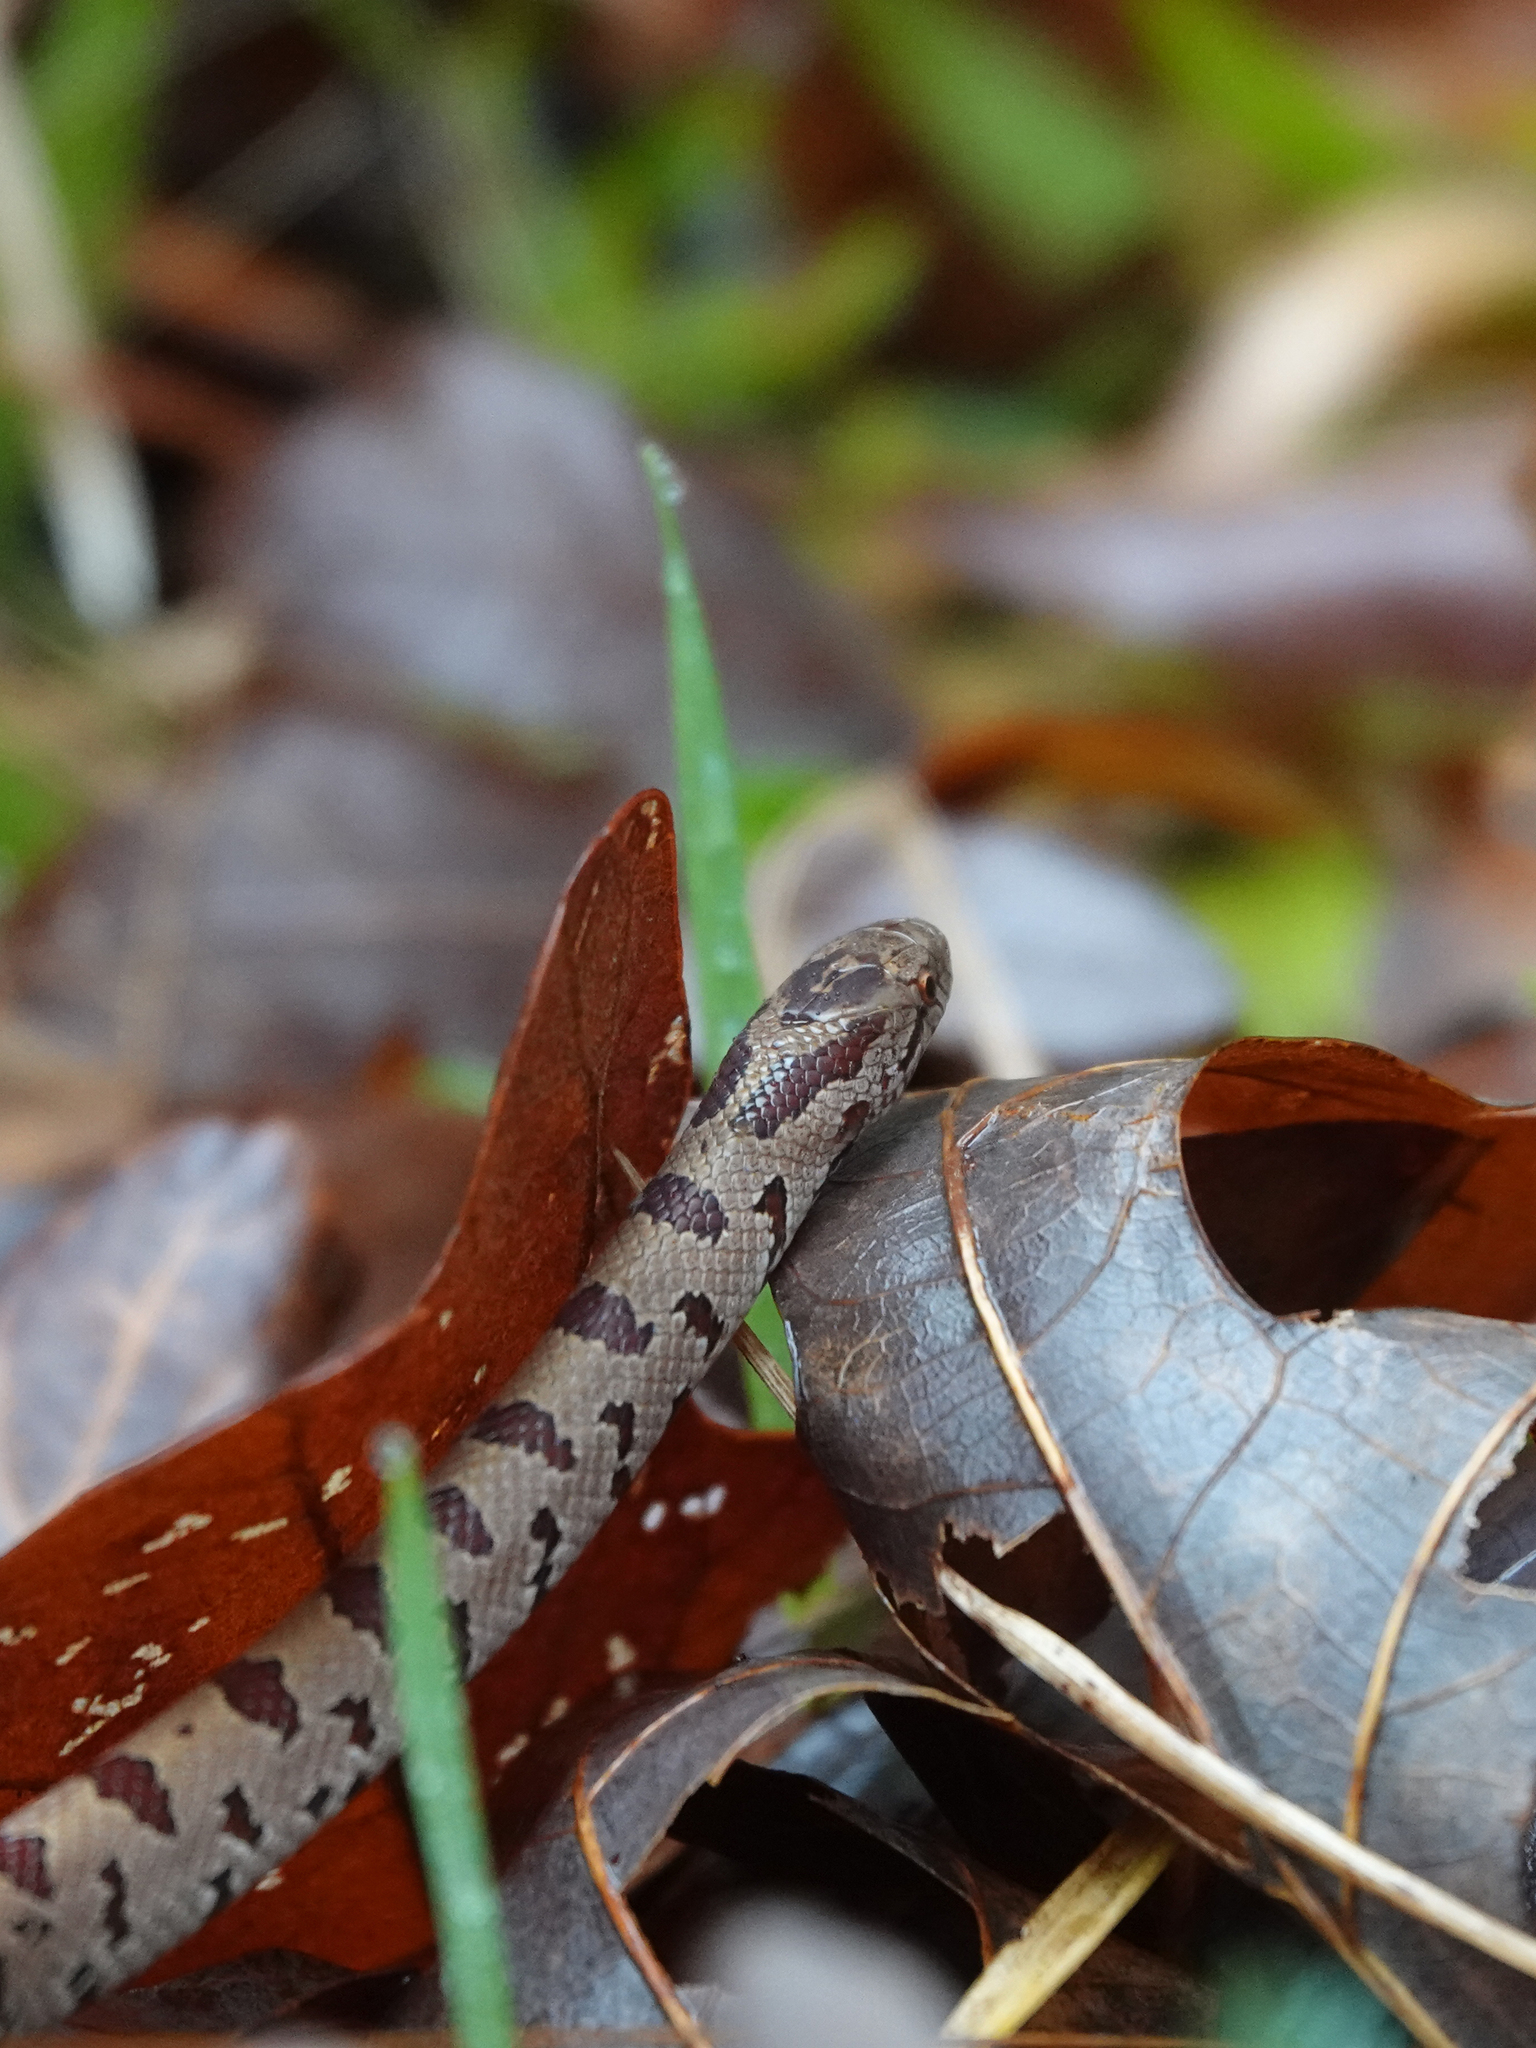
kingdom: Animalia
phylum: Chordata
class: Squamata
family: Colubridae
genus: Lampropeltis
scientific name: Lampropeltis rhombomaculata
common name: Mole kingsnake
